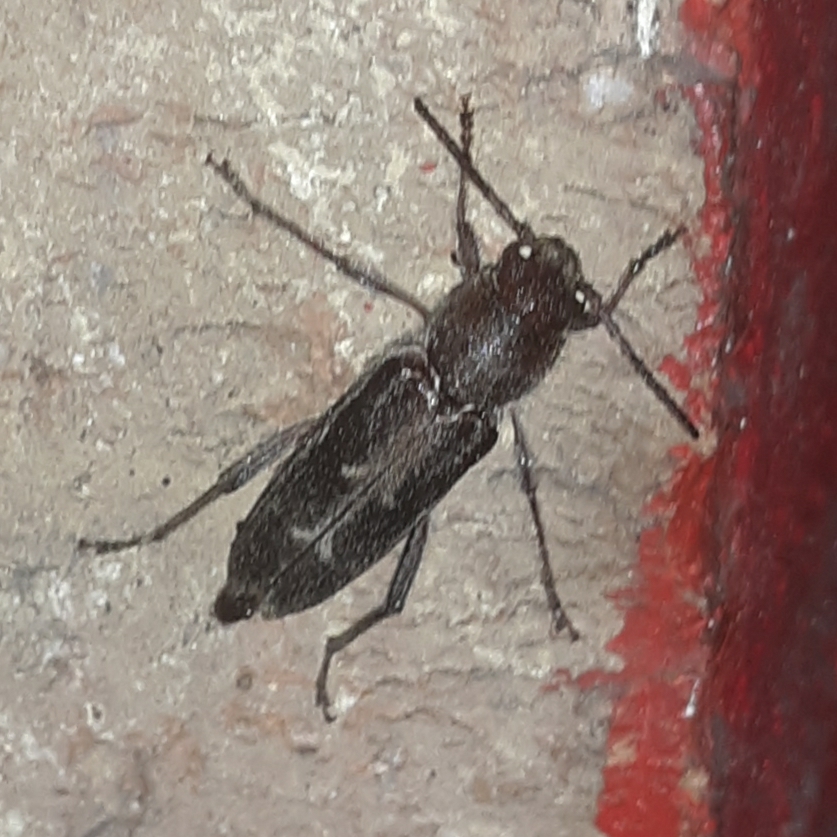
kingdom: Animalia
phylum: Arthropoda
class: Insecta
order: Coleoptera
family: Cerambycidae
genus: Xylotrechus
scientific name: Xylotrechus sagittatus
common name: Arrowhead borer
